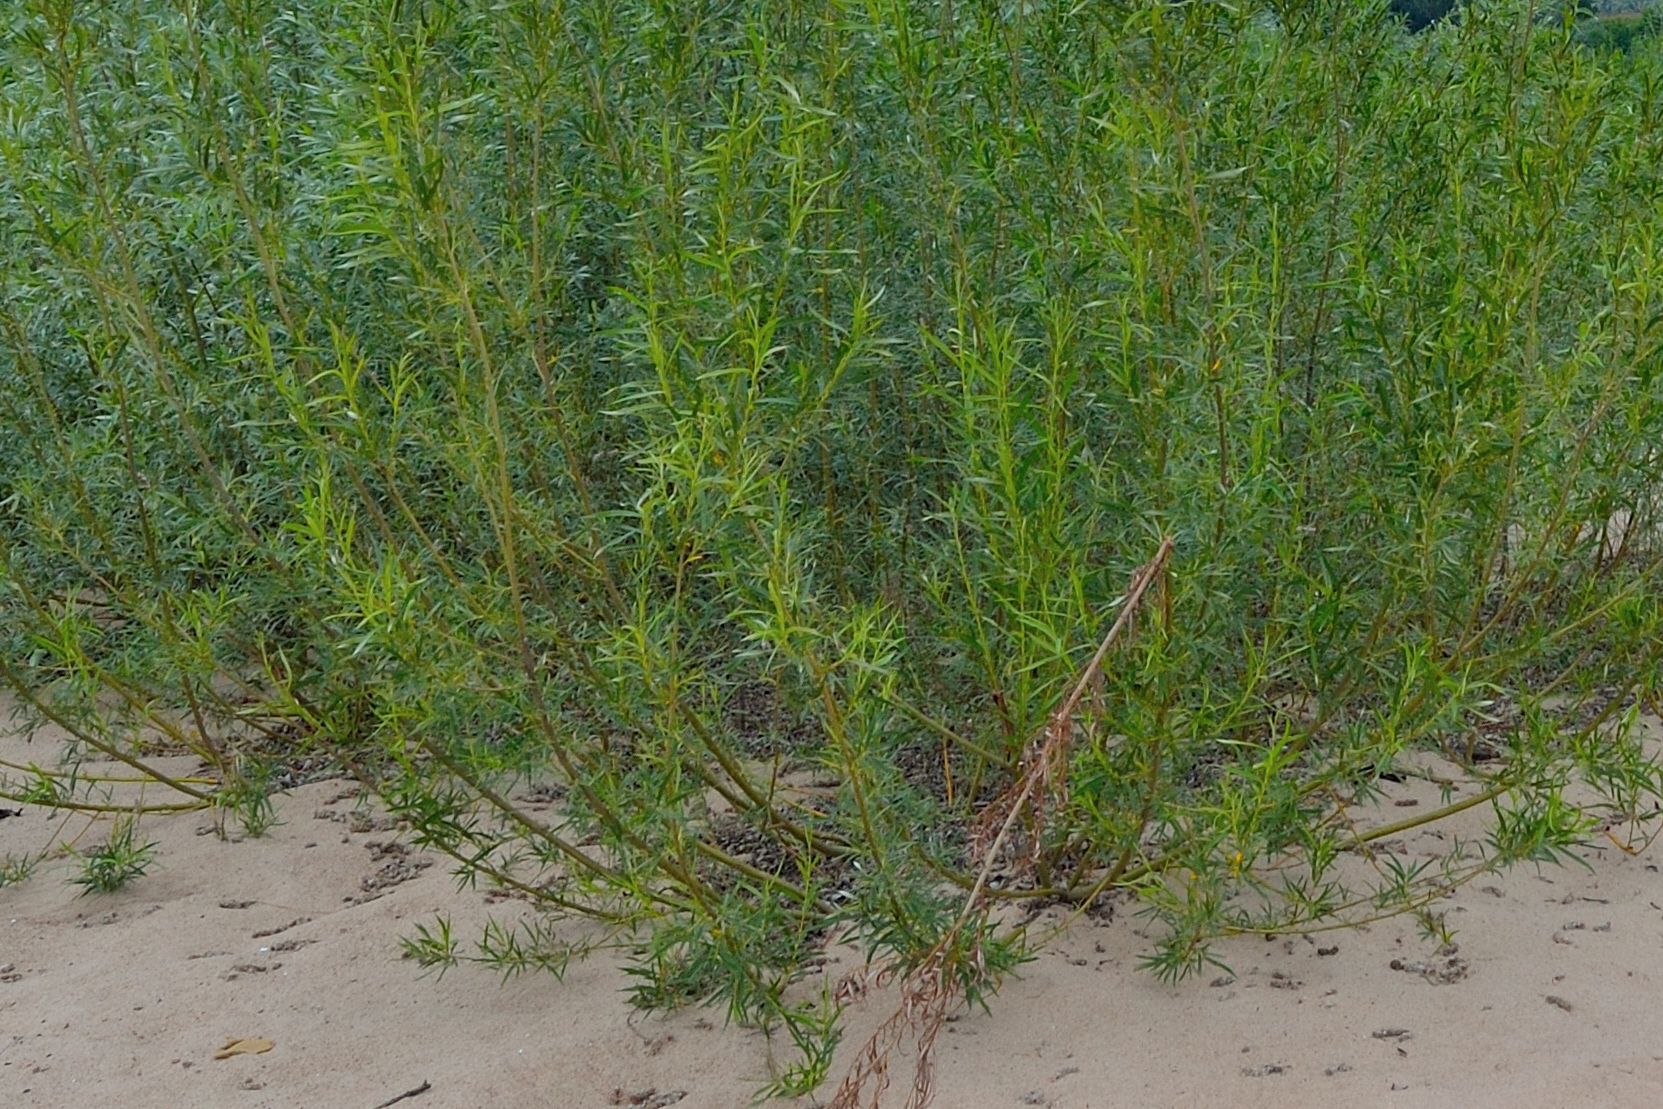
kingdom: Plantae
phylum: Tracheophyta
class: Magnoliopsida
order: Malpighiales
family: Salicaceae
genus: Salix
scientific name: Salix
